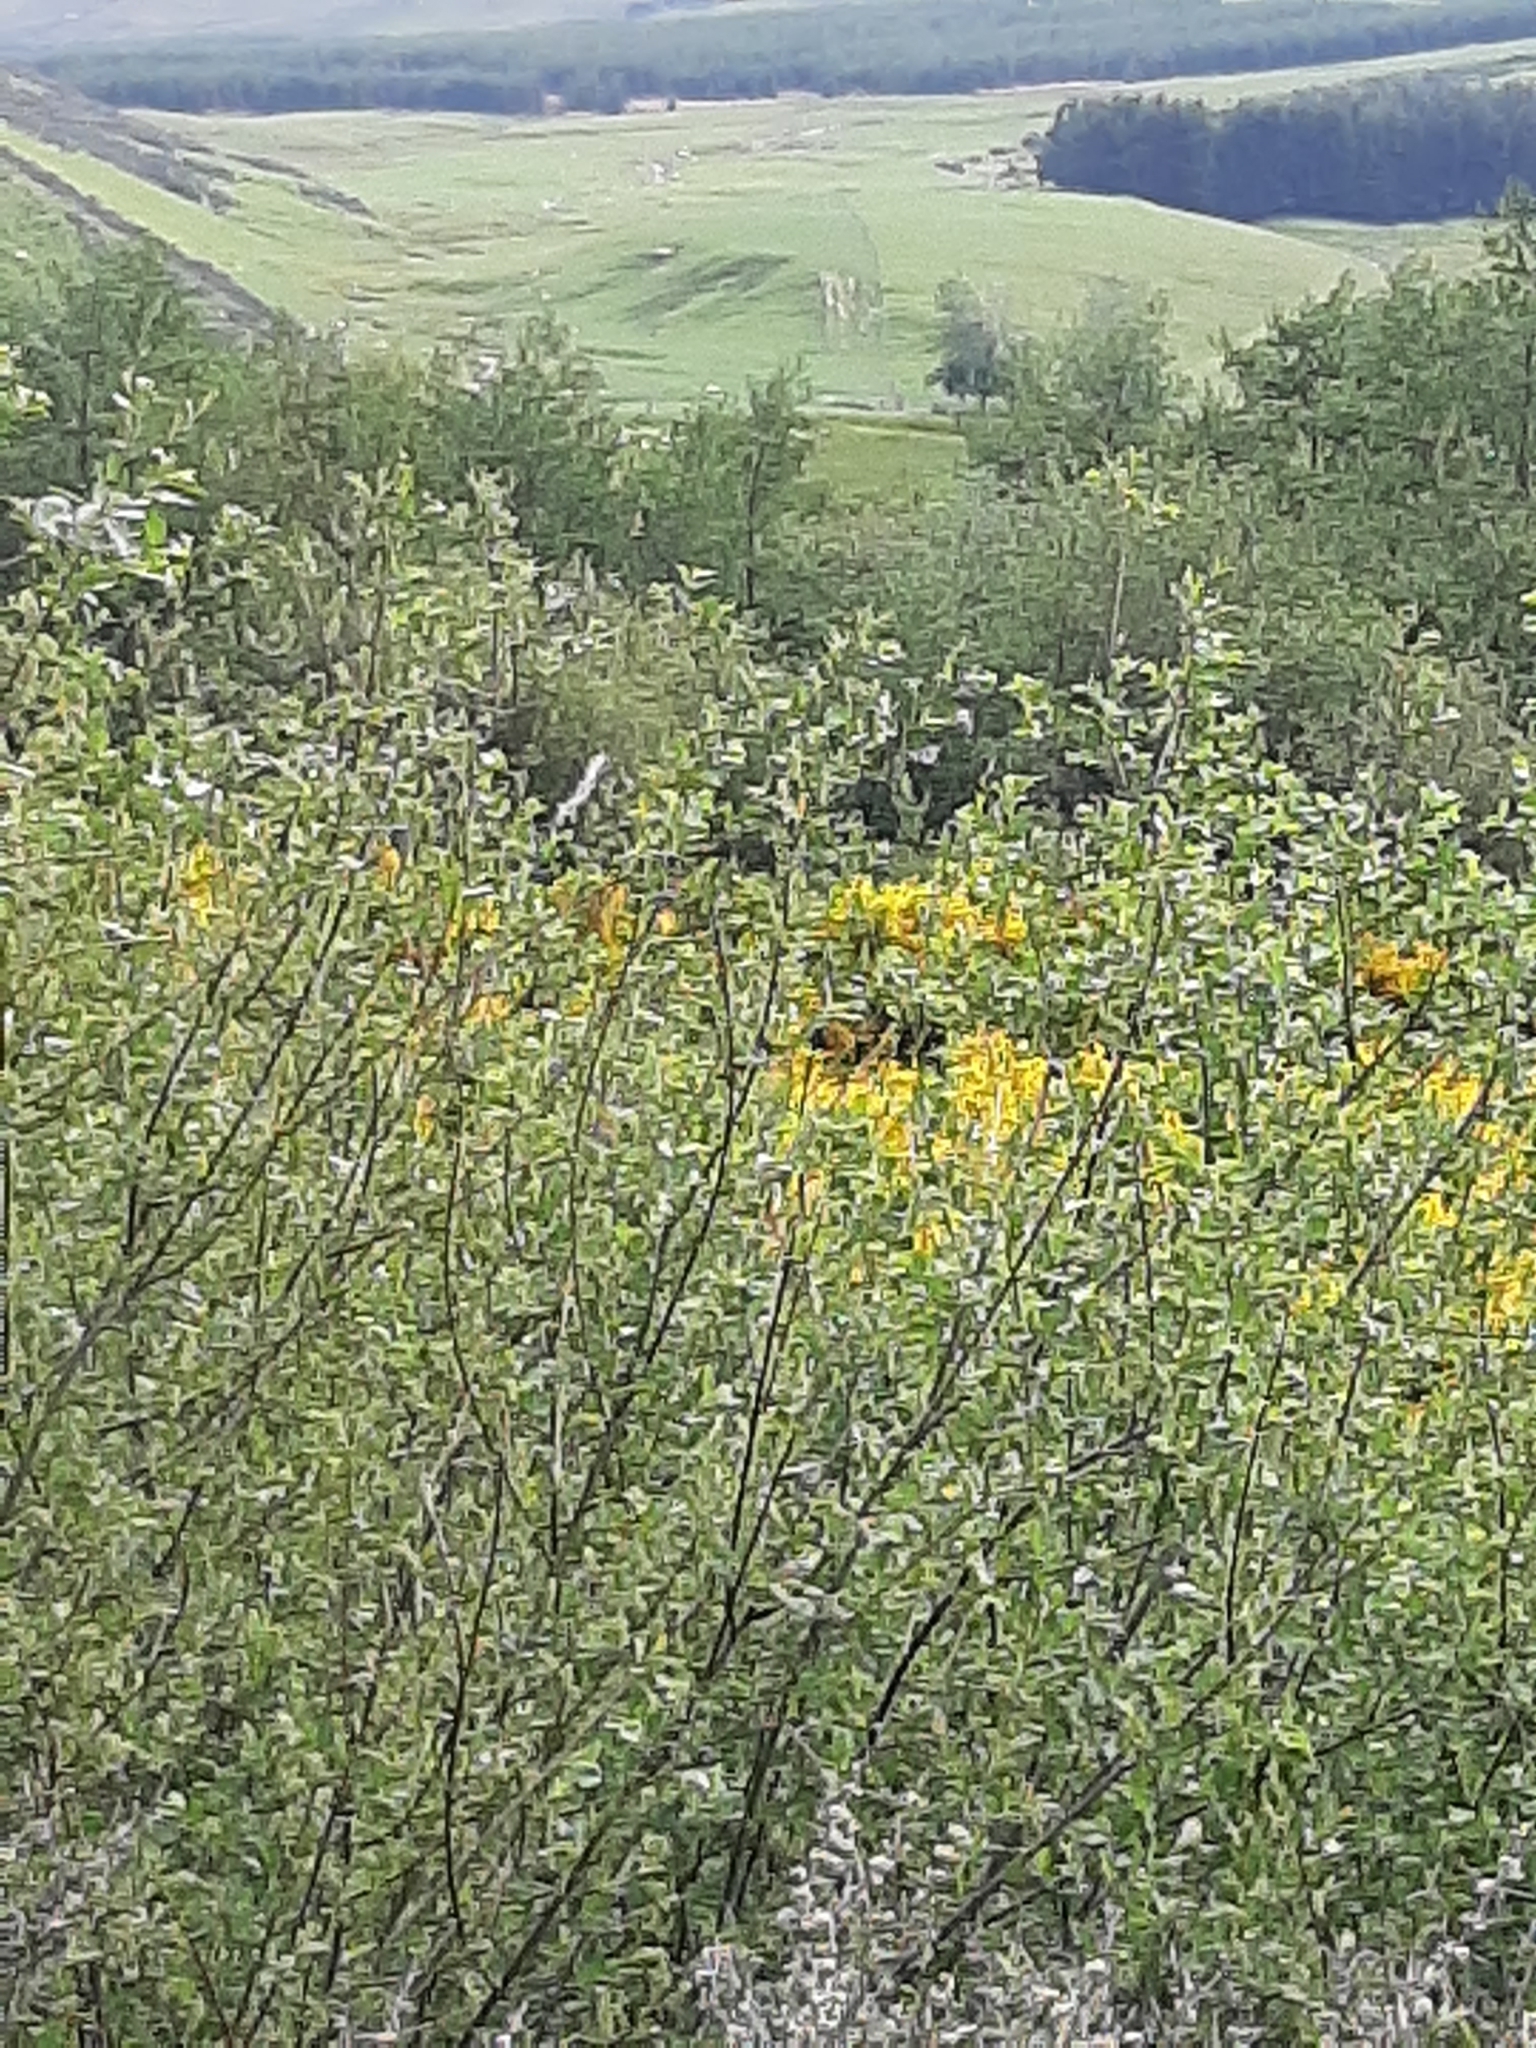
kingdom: Plantae
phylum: Tracheophyta
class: Magnoliopsida
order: Malpighiales
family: Salicaceae
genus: Salix
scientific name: Salix cinerea
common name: Common sallow
